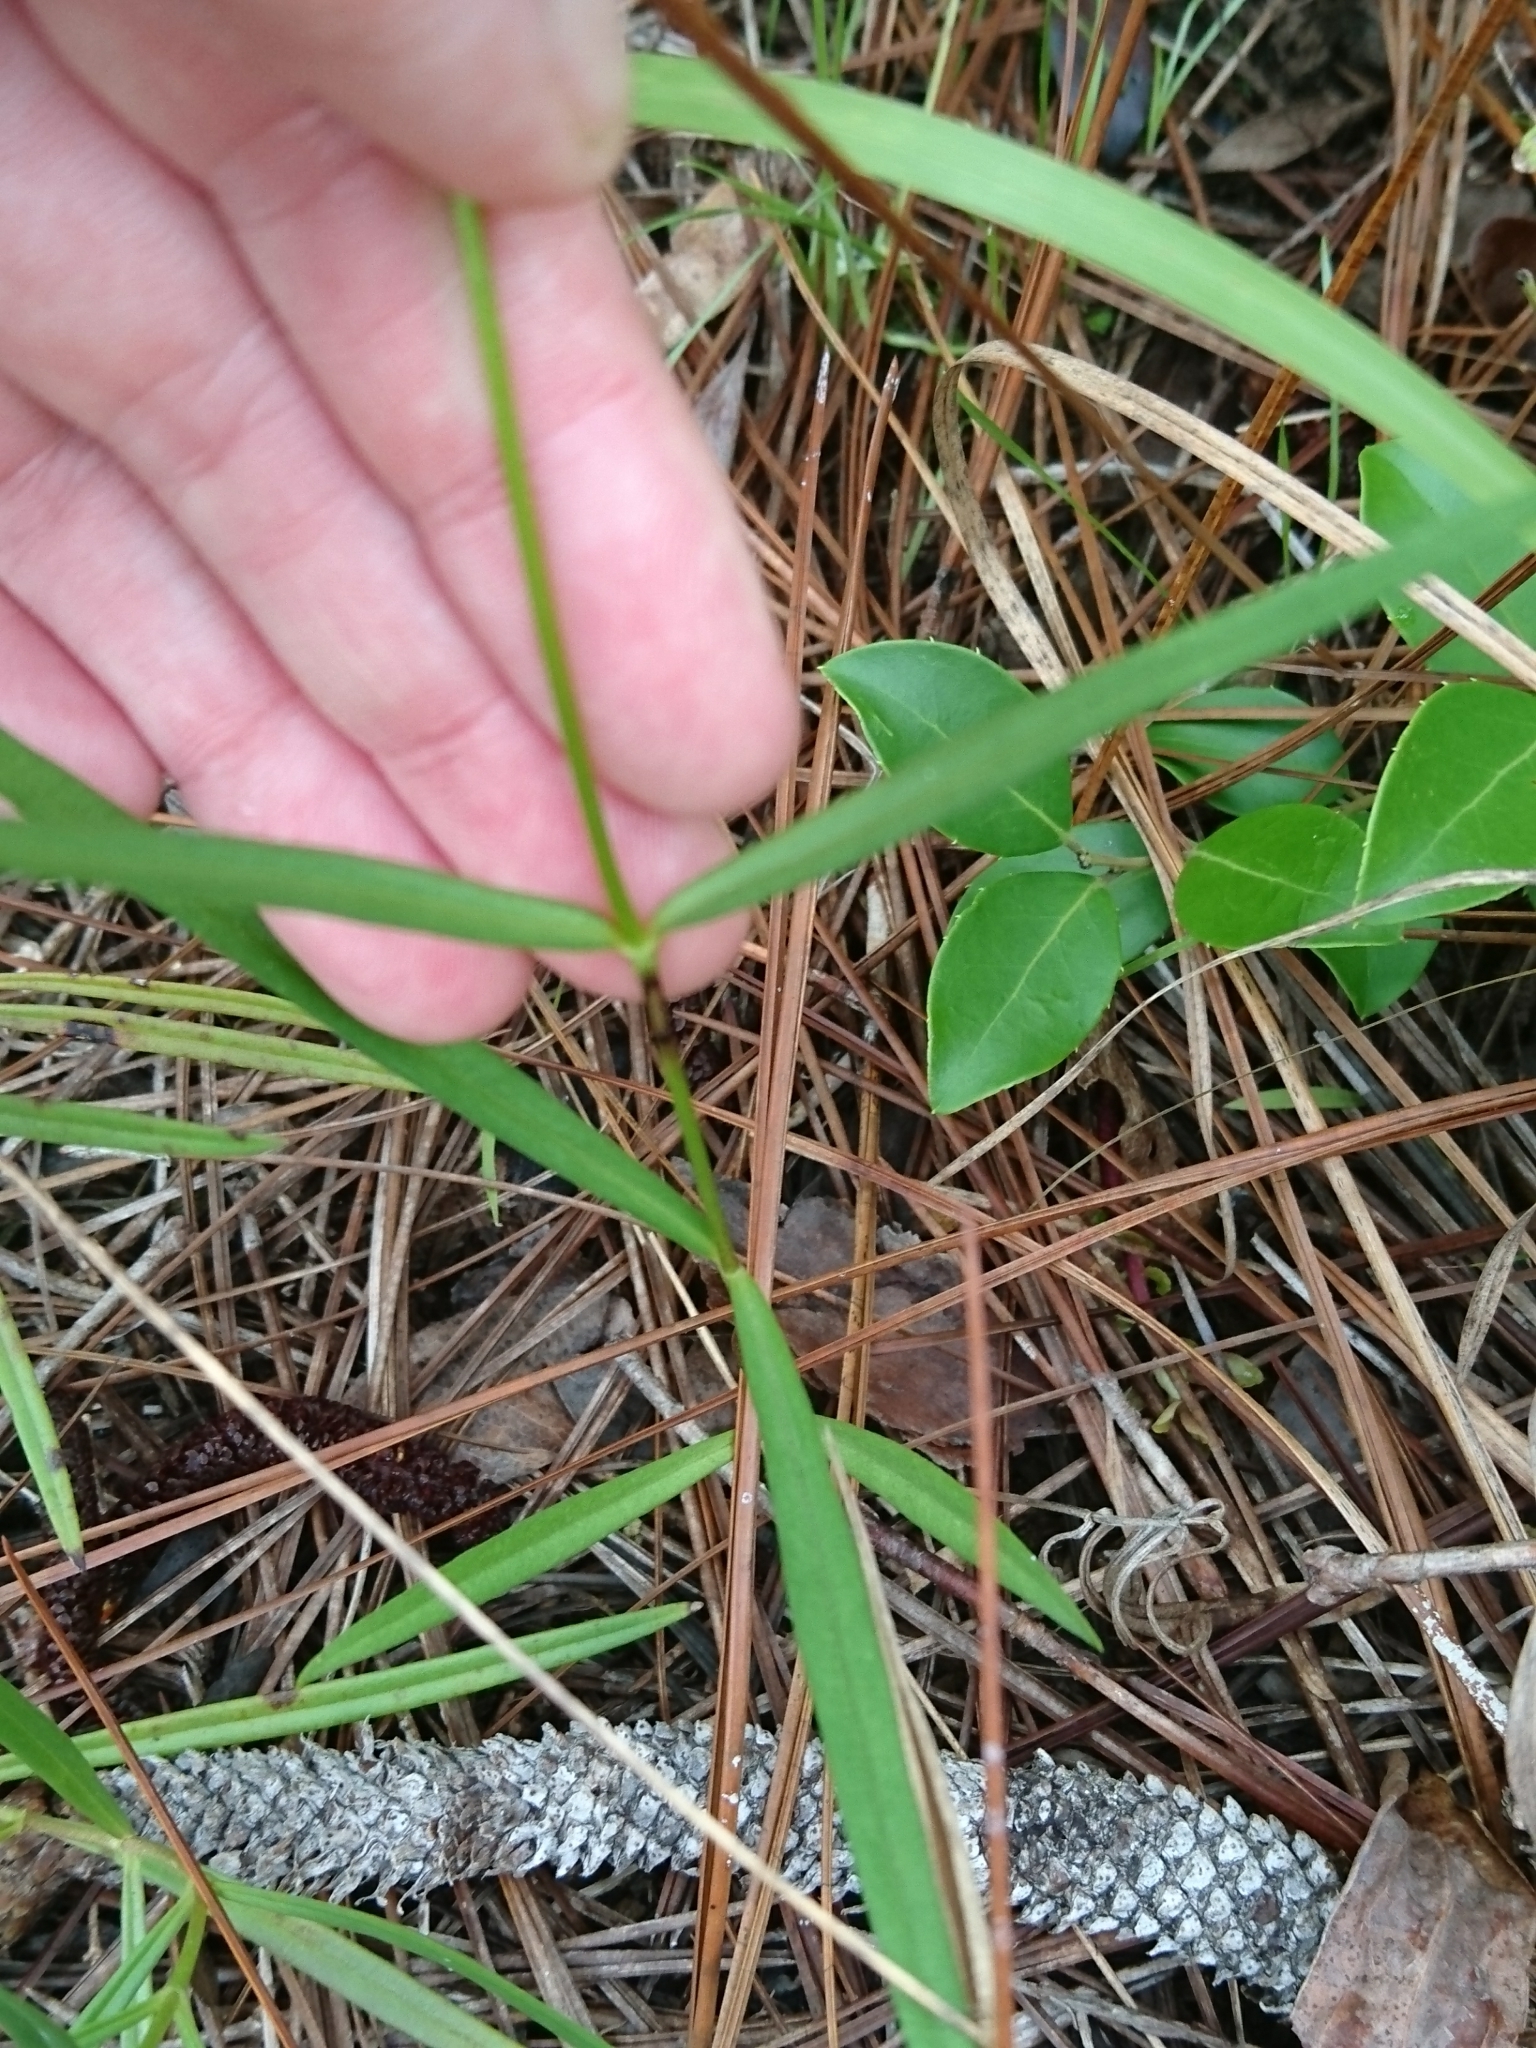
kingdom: Plantae
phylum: Tracheophyta
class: Magnoliopsida
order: Ericales
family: Polemoniaceae
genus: Phlox
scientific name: Phlox carolina
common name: Thick-leaf phlox
